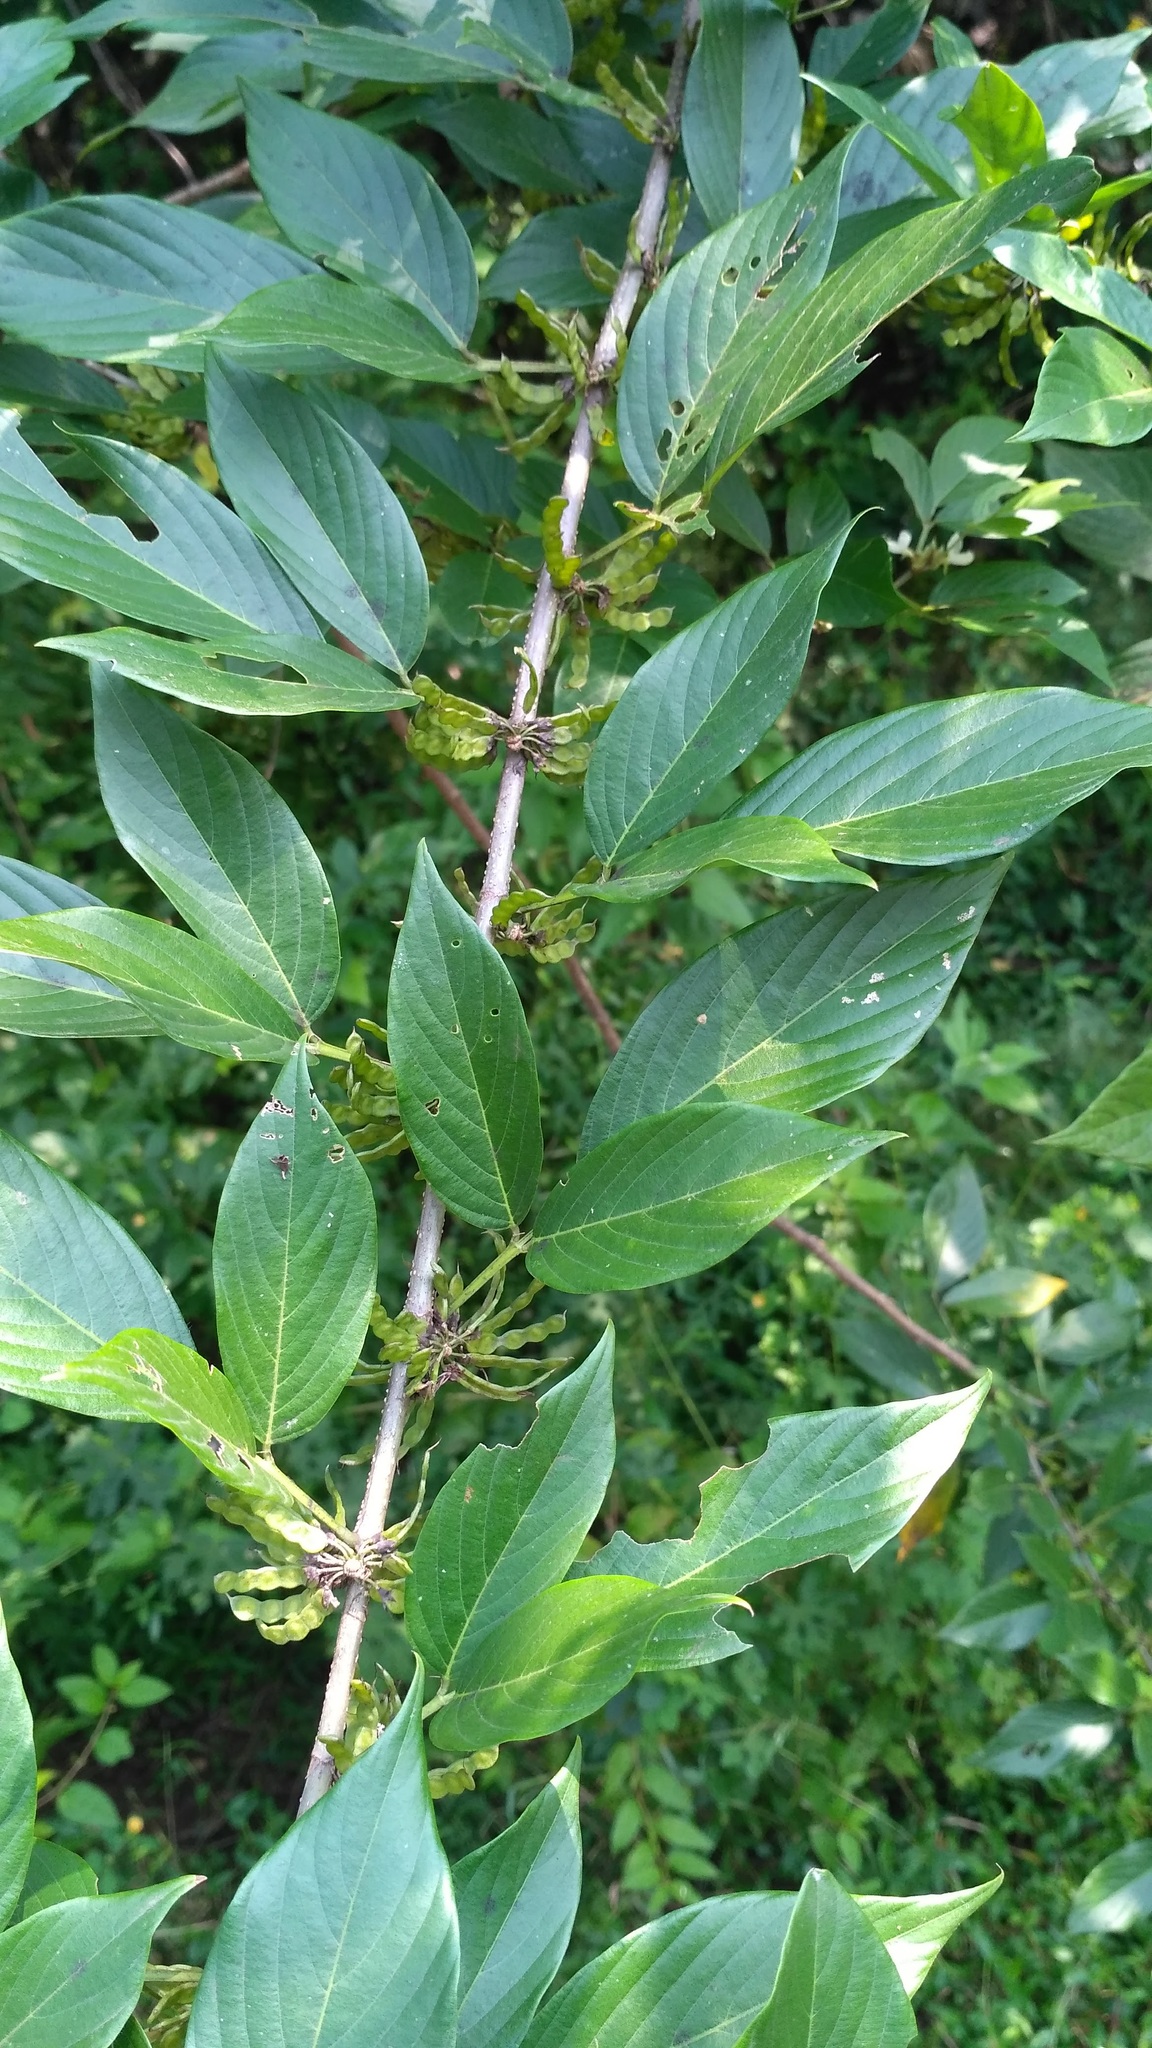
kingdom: Plantae
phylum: Tracheophyta
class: Magnoliopsida
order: Fabales
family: Fabaceae
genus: Dendrolobium
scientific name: Dendrolobium triangulare
